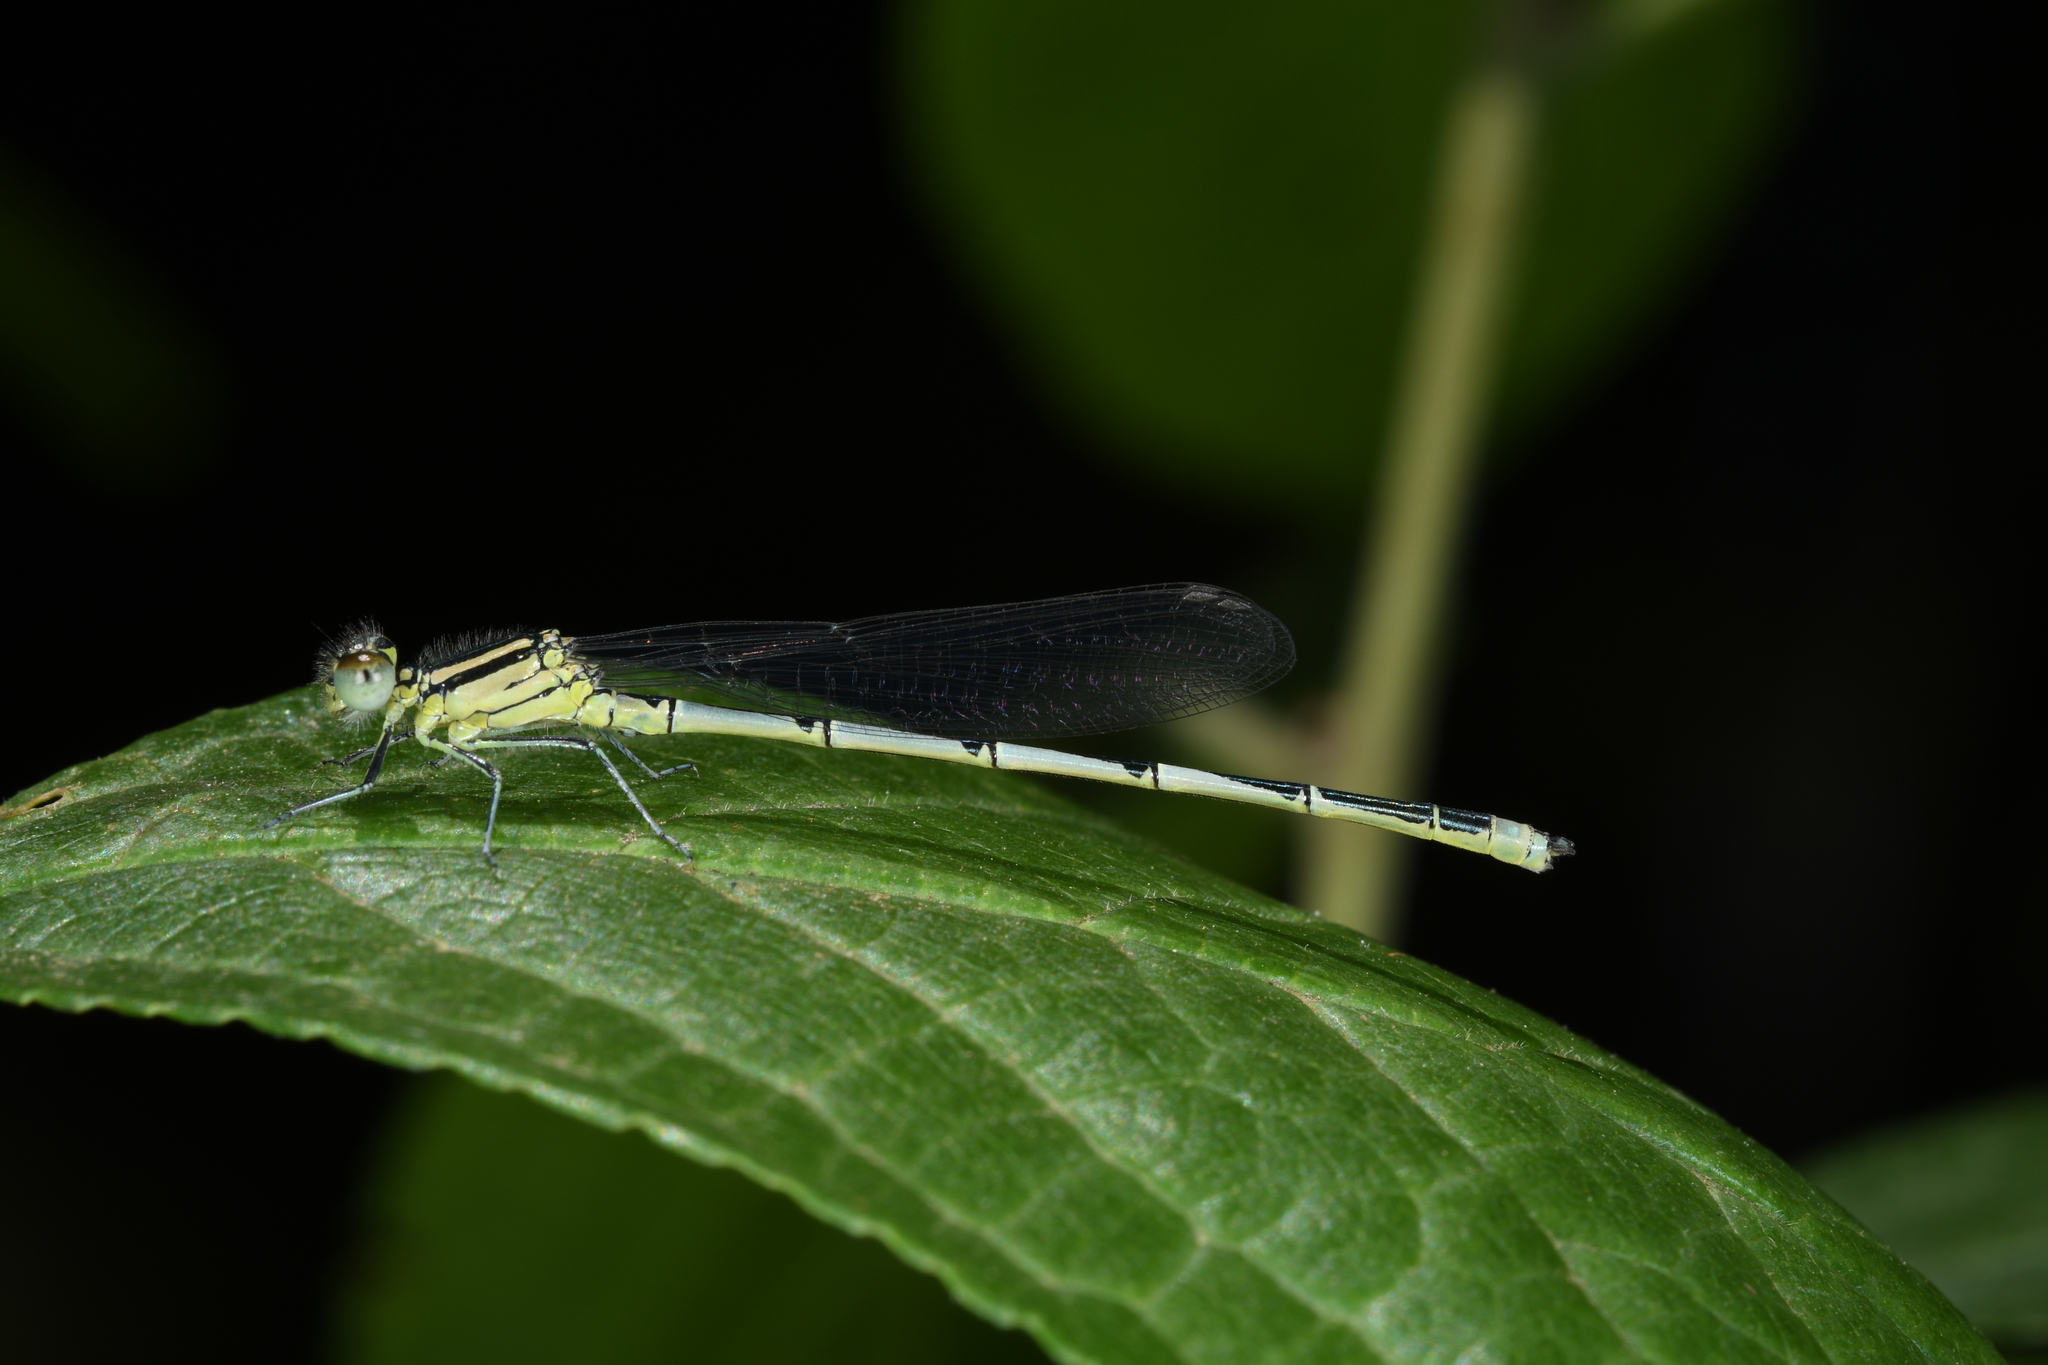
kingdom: Animalia
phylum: Arthropoda
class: Insecta
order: Odonata
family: Coenagrionidae
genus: Erythromma
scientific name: Erythromma lindenii
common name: Blue-eye
